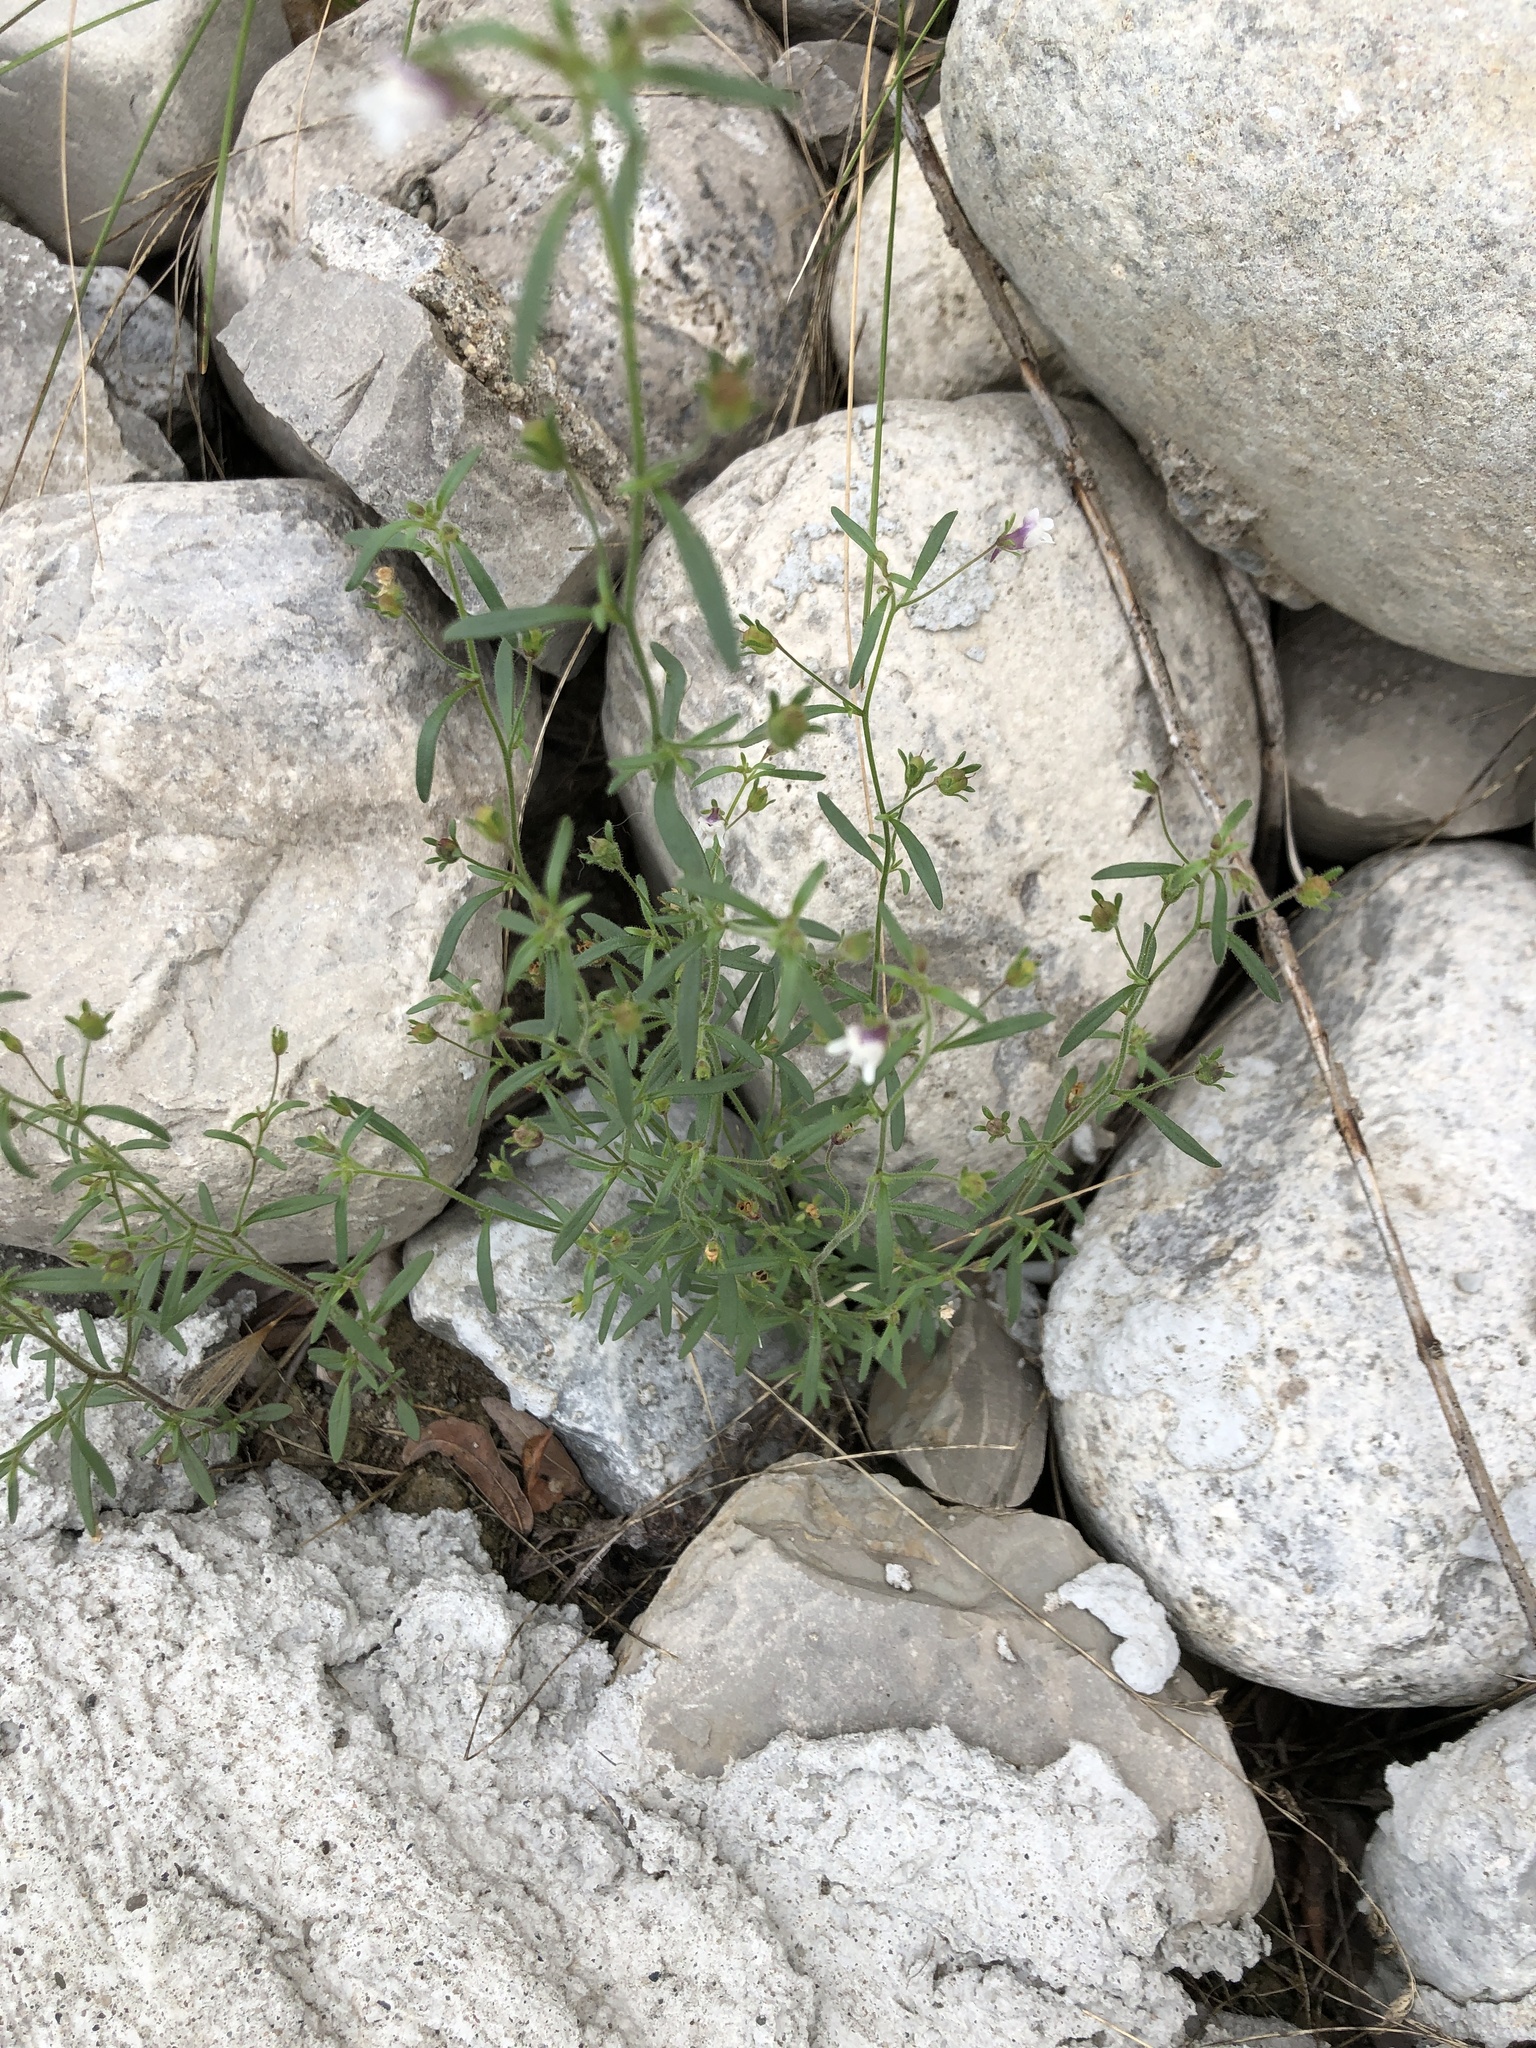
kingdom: Plantae
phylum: Tracheophyta
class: Magnoliopsida
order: Lamiales
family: Plantaginaceae
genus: Chaenorhinum
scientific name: Chaenorhinum minus
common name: Dwarf snapdragon
